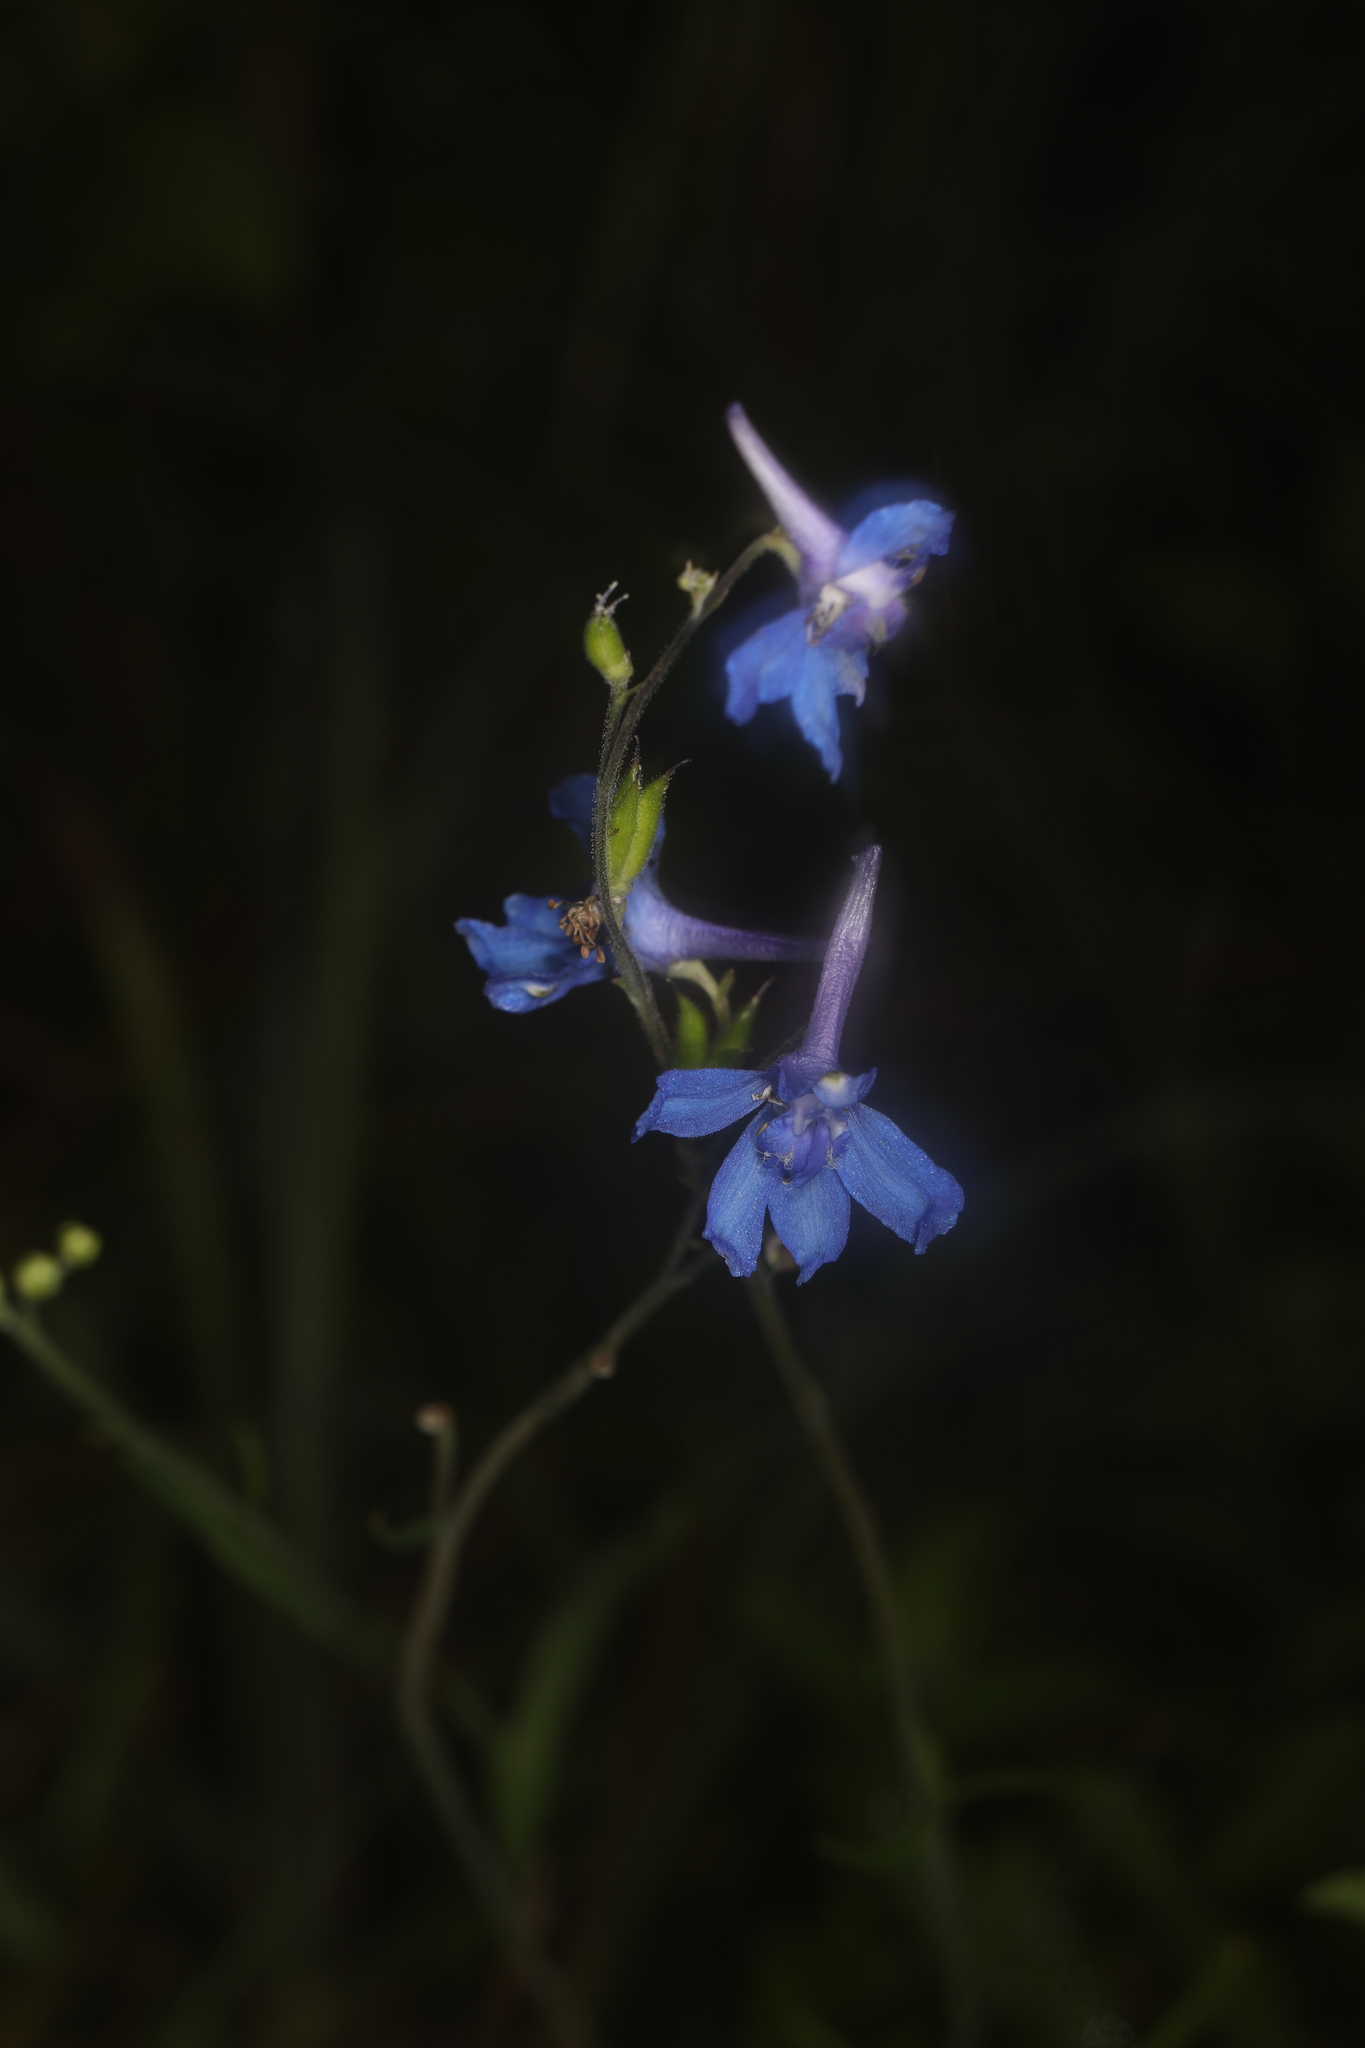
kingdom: Plantae
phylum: Tracheophyta
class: Magnoliopsida
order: Ranunculales
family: Ranunculaceae
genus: Delphinium
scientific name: Delphinium carolinianum
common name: Carolina larkspur
